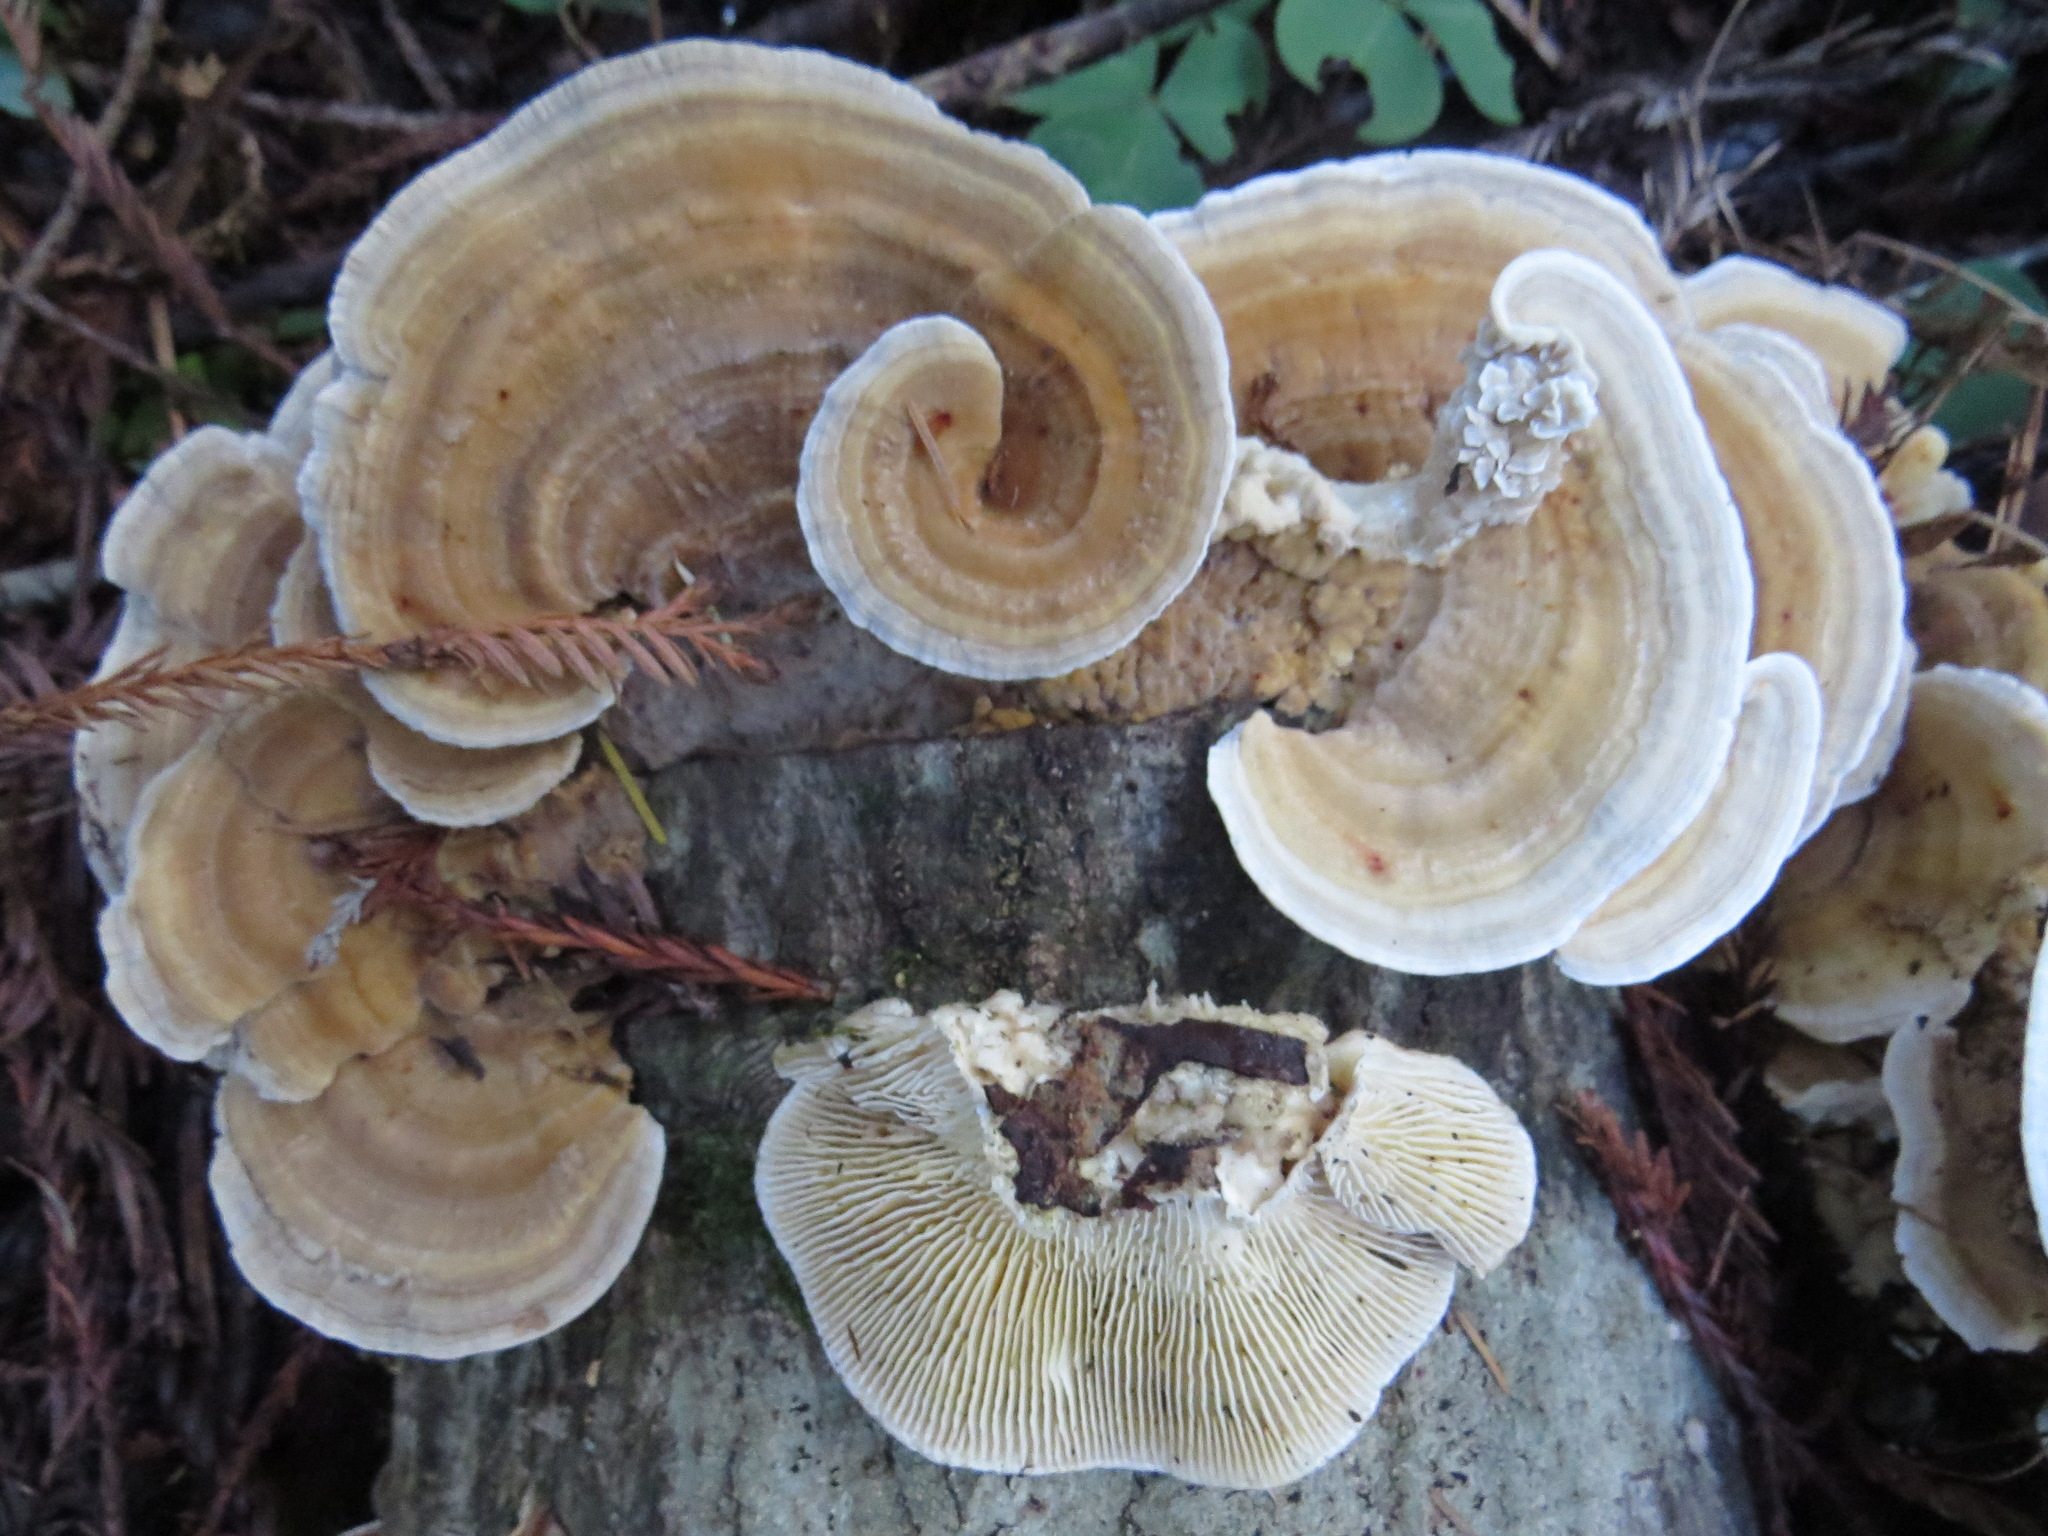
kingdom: Fungi
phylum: Basidiomycota
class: Agaricomycetes
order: Polyporales
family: Polyporaceae
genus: Lenzites
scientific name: Lenzites betulinus
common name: Birch mazegill
